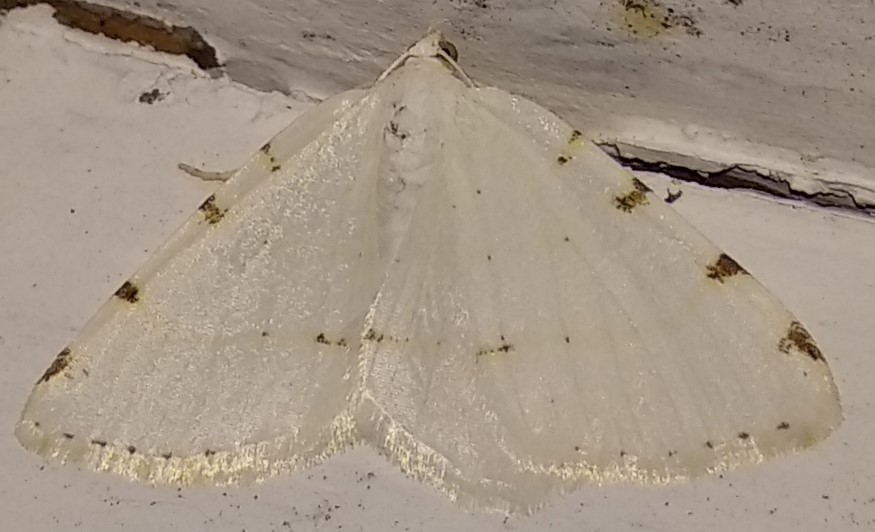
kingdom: Animalia
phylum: Arthropoda
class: Insecta
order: Lepidoptera
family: Geometridae
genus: Macaria
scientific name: Macaria pustularia
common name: Lesser maple spanworm moth
